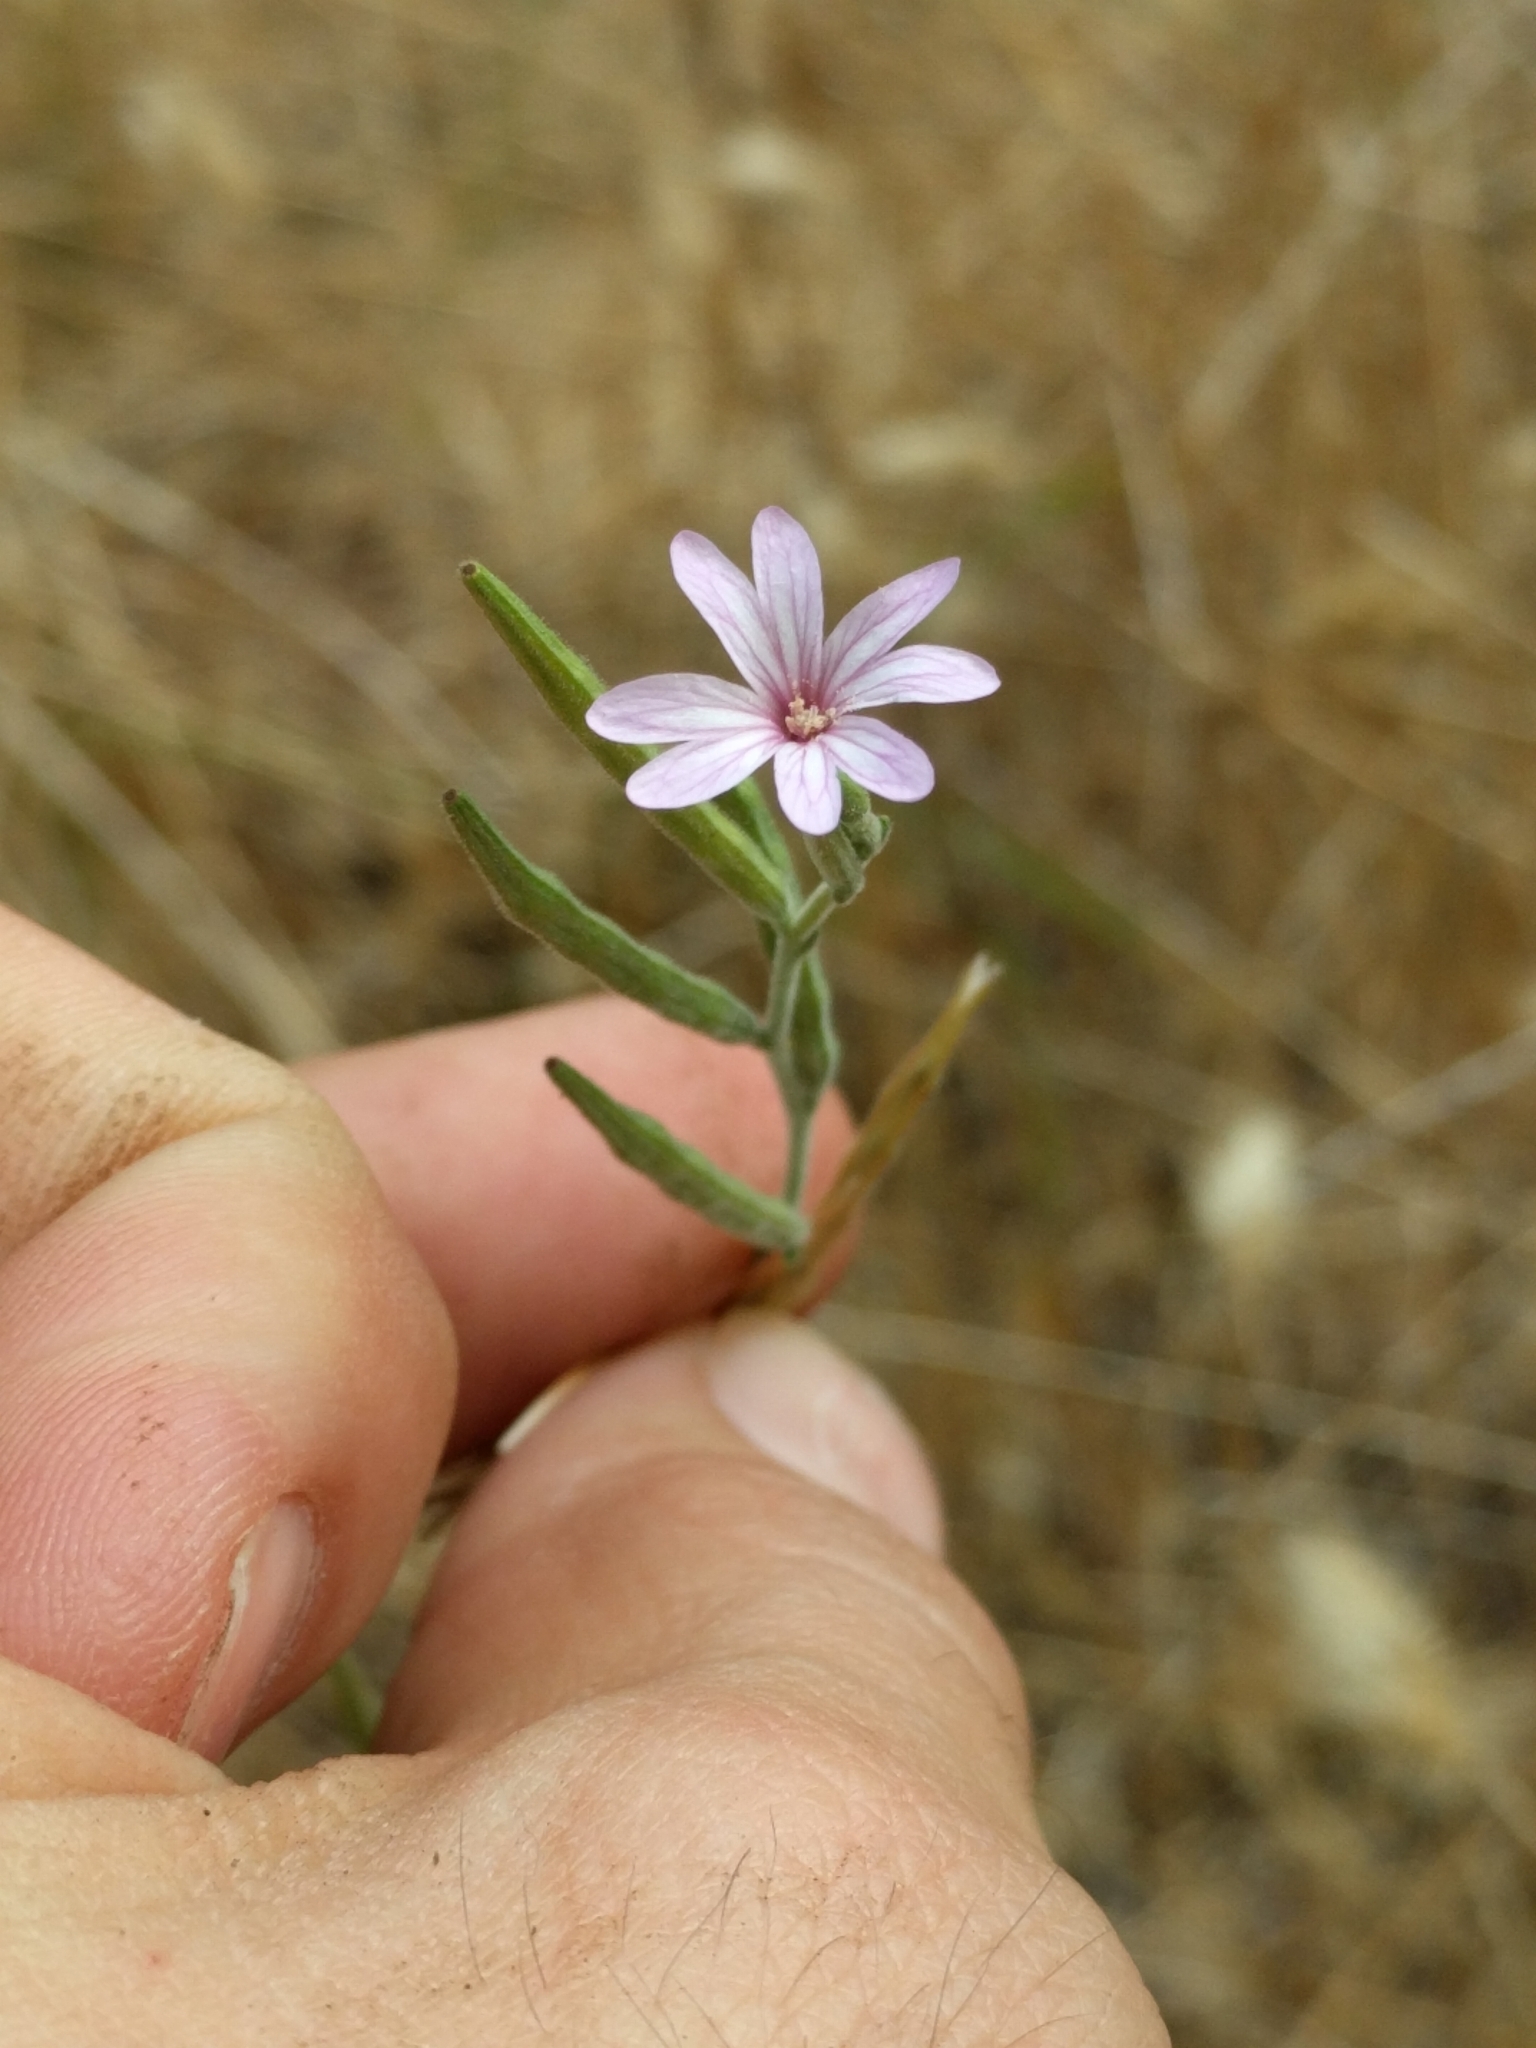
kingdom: Plantae
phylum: Tracheophyta
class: Magnoliopsida
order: Myrtales
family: Onagraceae
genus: Epilobium
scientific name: Epilobium brachycarpum
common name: Annual willowherb
